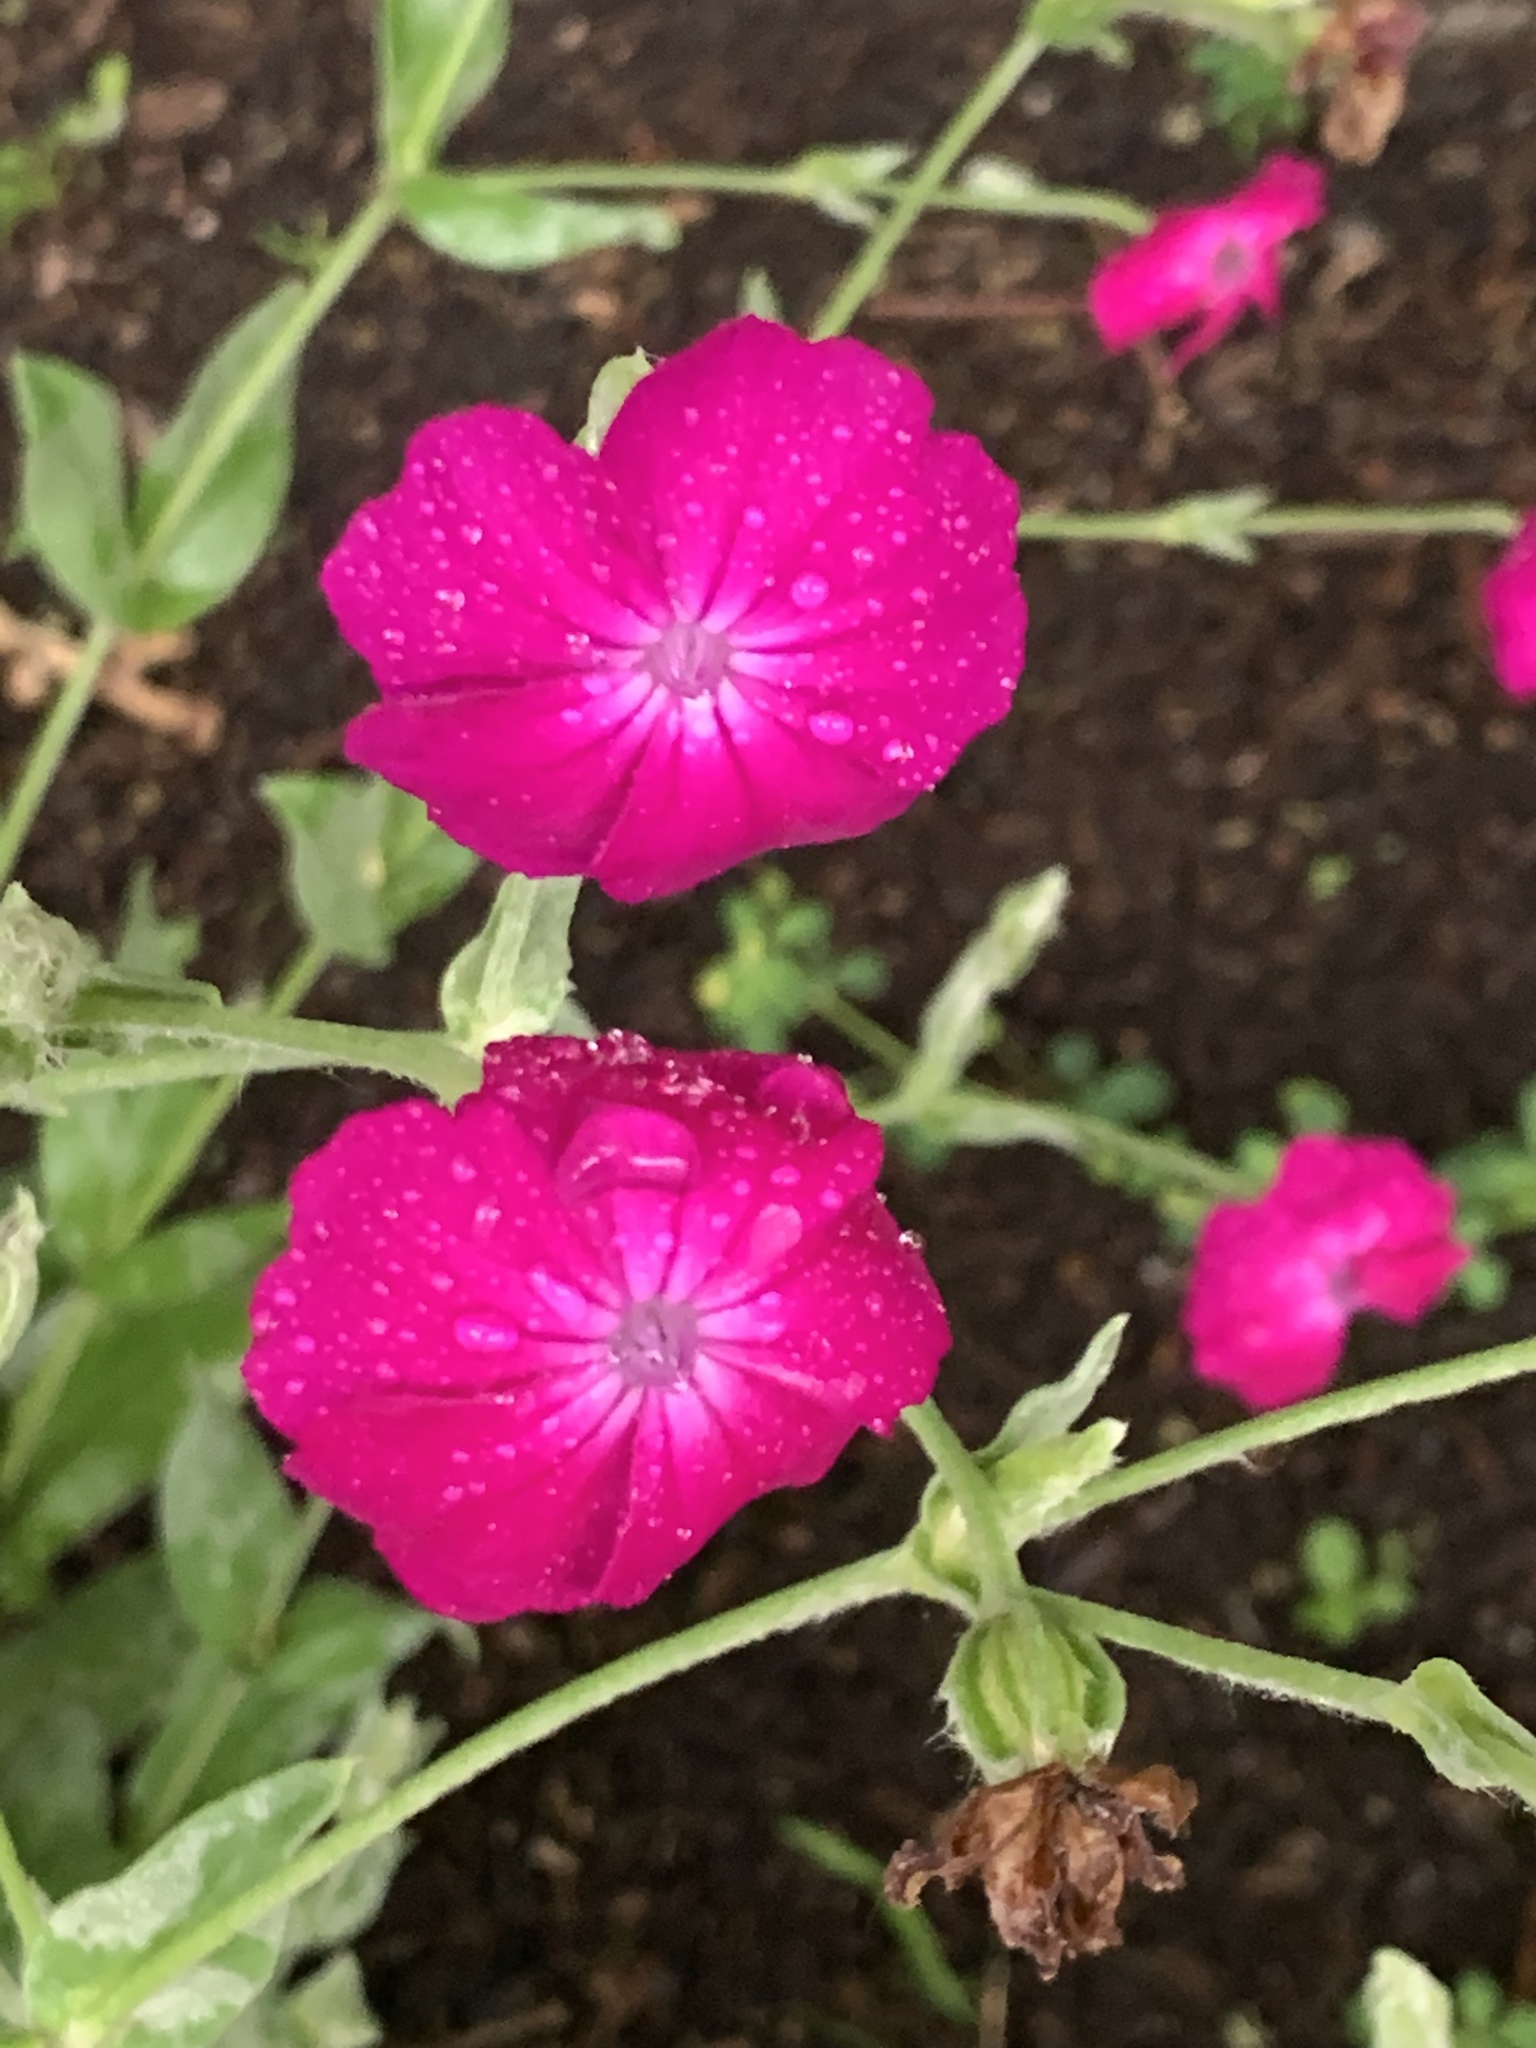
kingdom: Plantae
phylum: Tracheophyta
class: Magnoliopsida
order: Caryophyllales
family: Caryophyllaceae
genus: Silene
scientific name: Silene coronaria
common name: Rose campion
